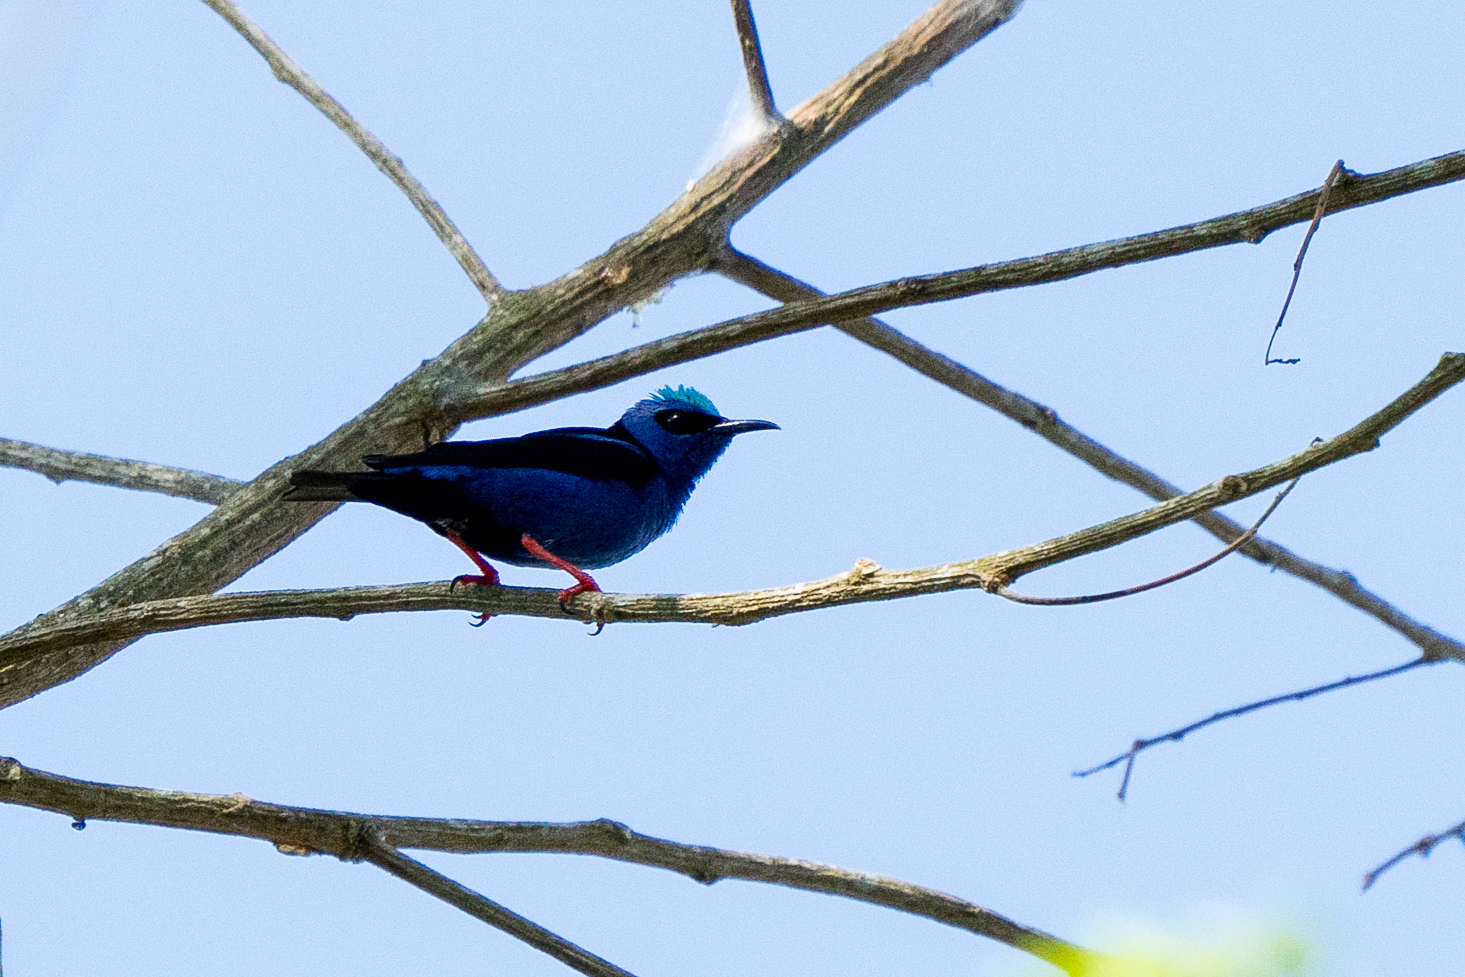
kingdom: Animalia
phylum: Chordata
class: Aves
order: Passeriformes
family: Thraupidae
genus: Cyanerpes
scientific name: Cyanerpes cyaneus
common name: Red-legged honeycreeper
